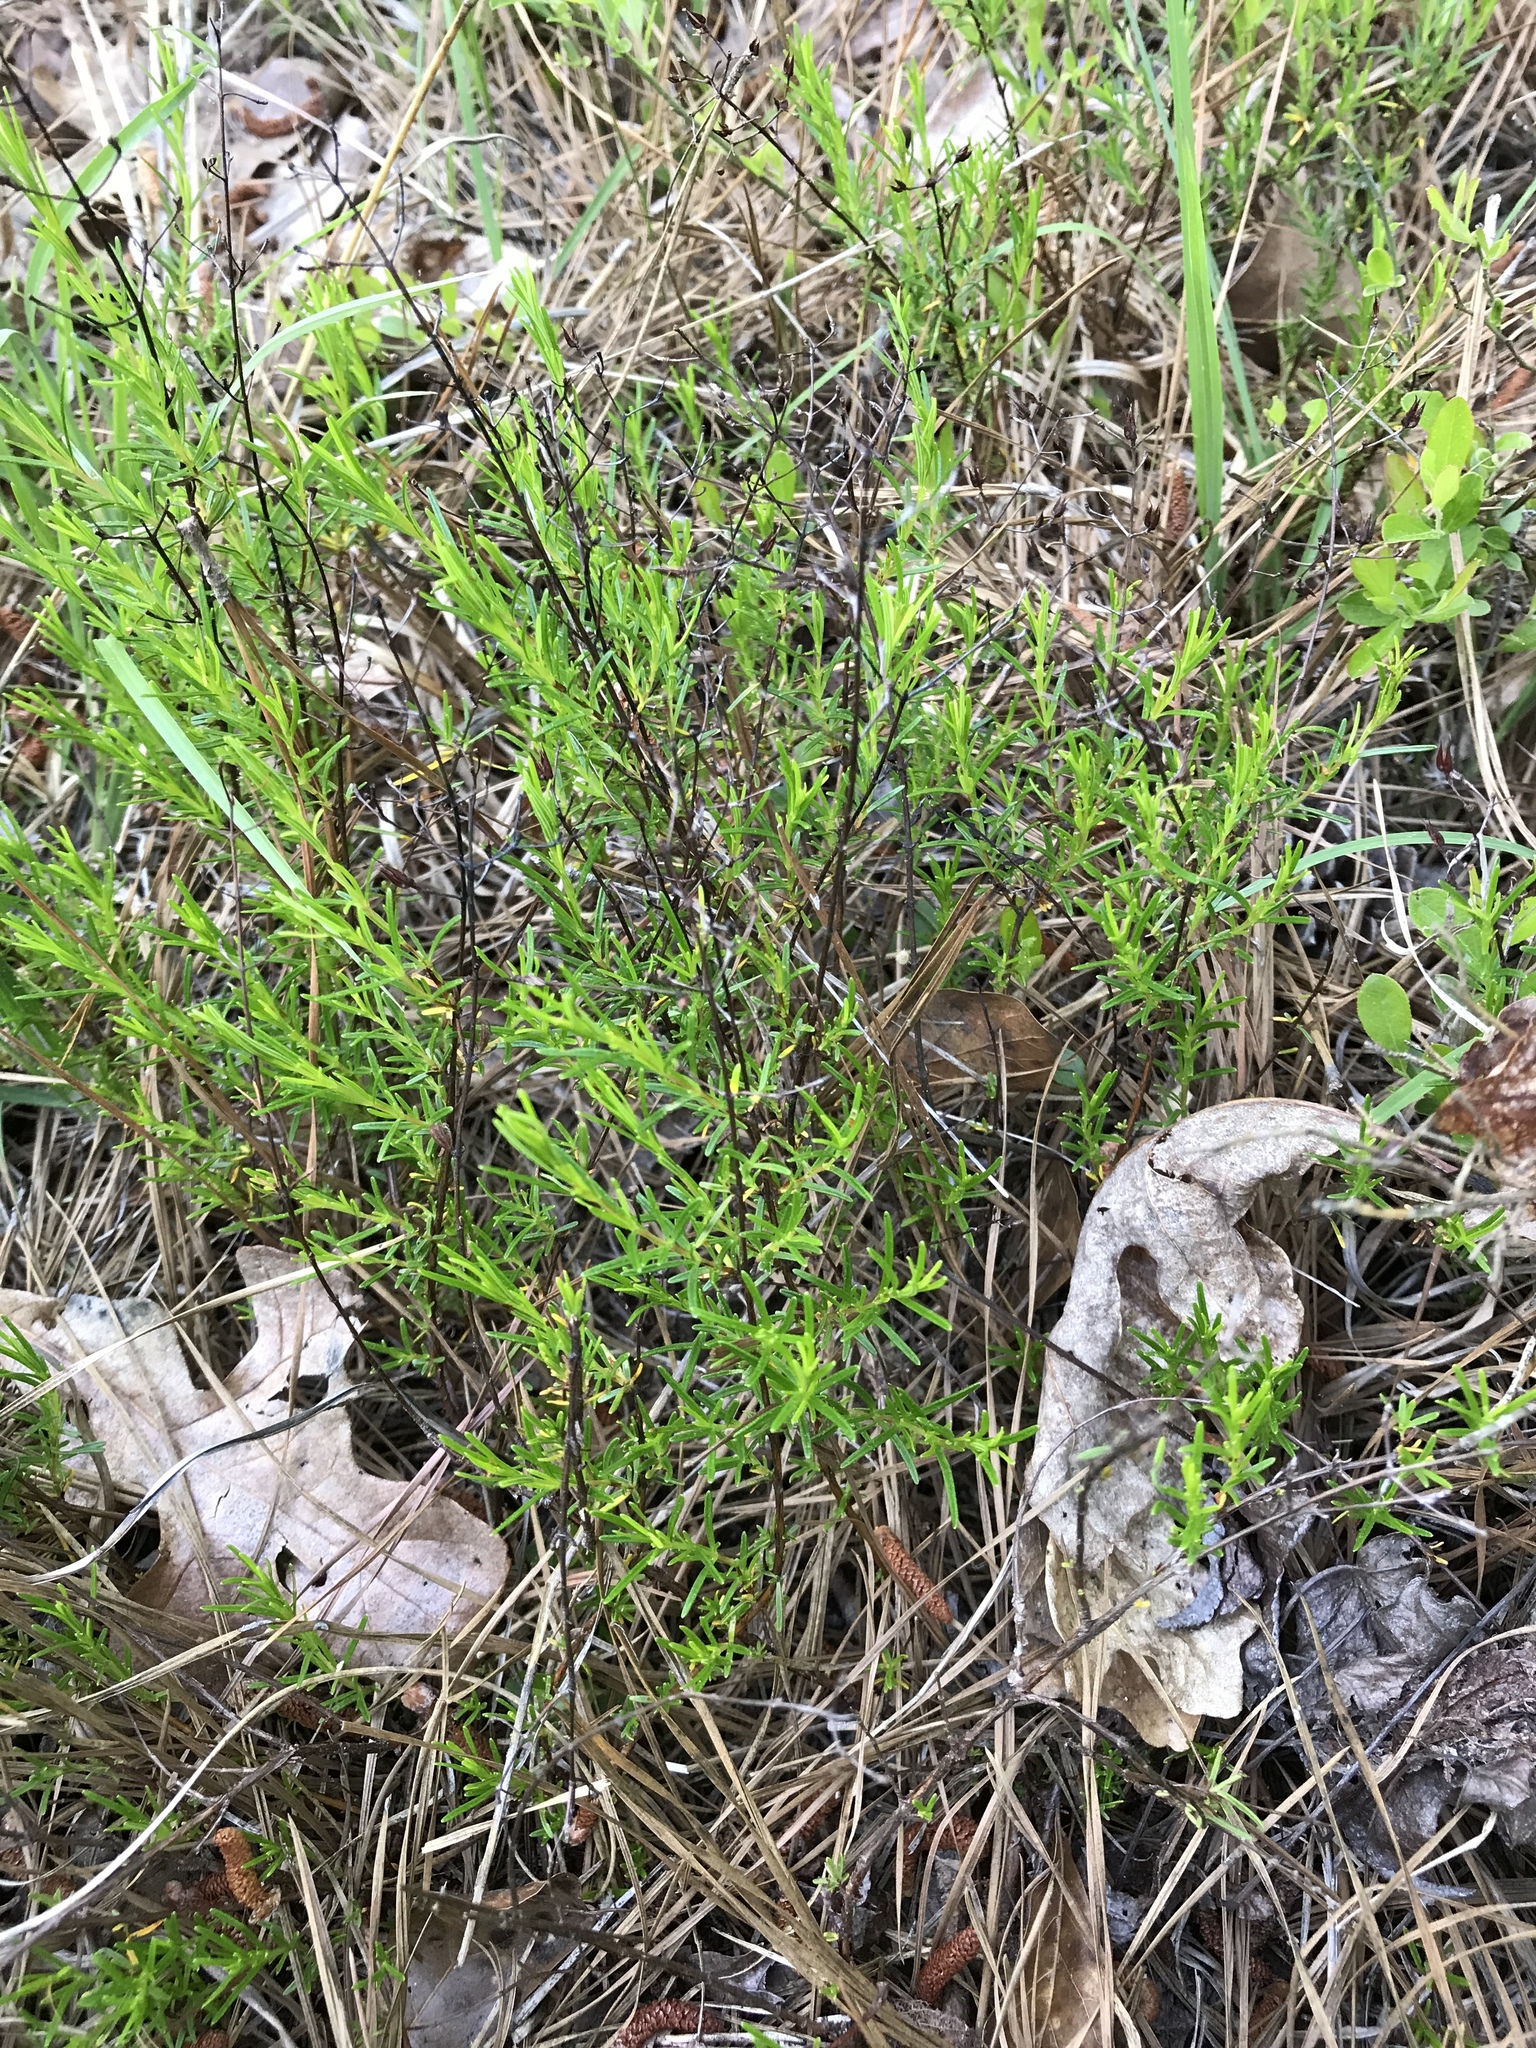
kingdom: Plantae
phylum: Tracheophyta
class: Magnoliopsida
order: Malpighiales
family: Hypericaceae
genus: Hypericum
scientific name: Hypericum lloydii
